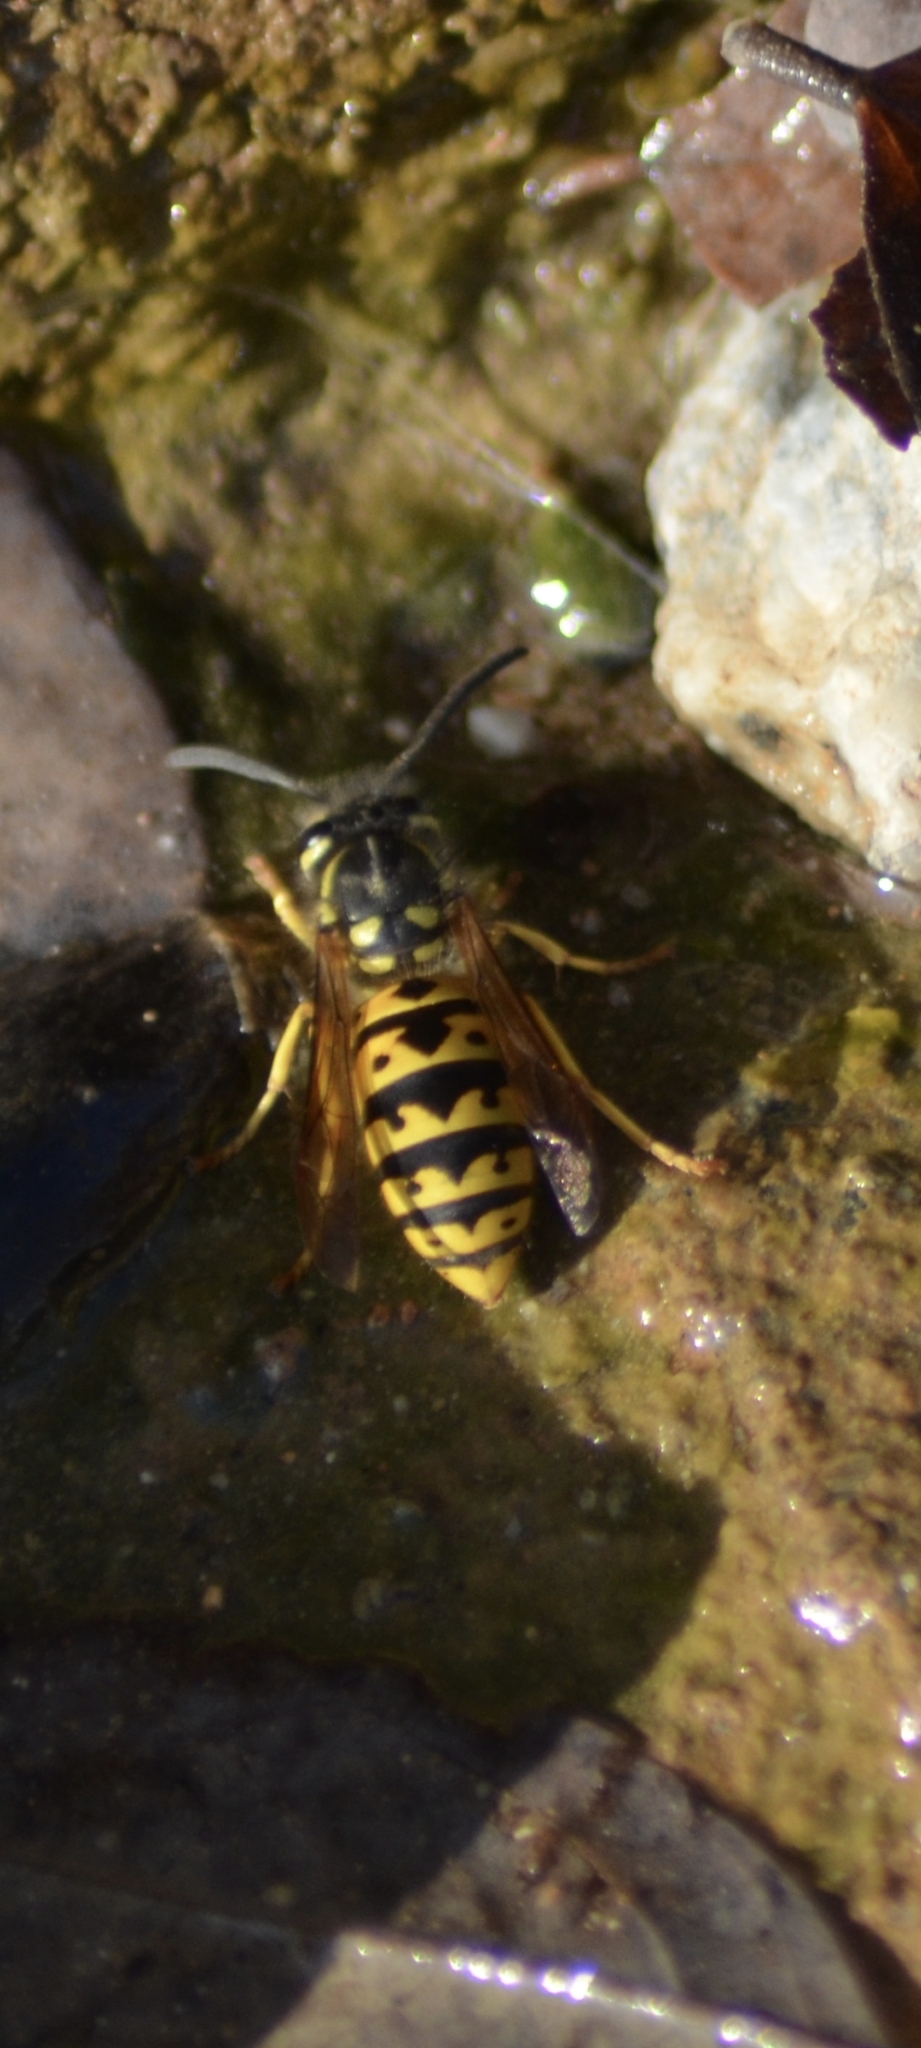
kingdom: Animalia
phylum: Arthropoda
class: Insecta
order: Hymenoptera
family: Vespidae
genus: Vespula
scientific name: Vespula germanica
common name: German wasp
